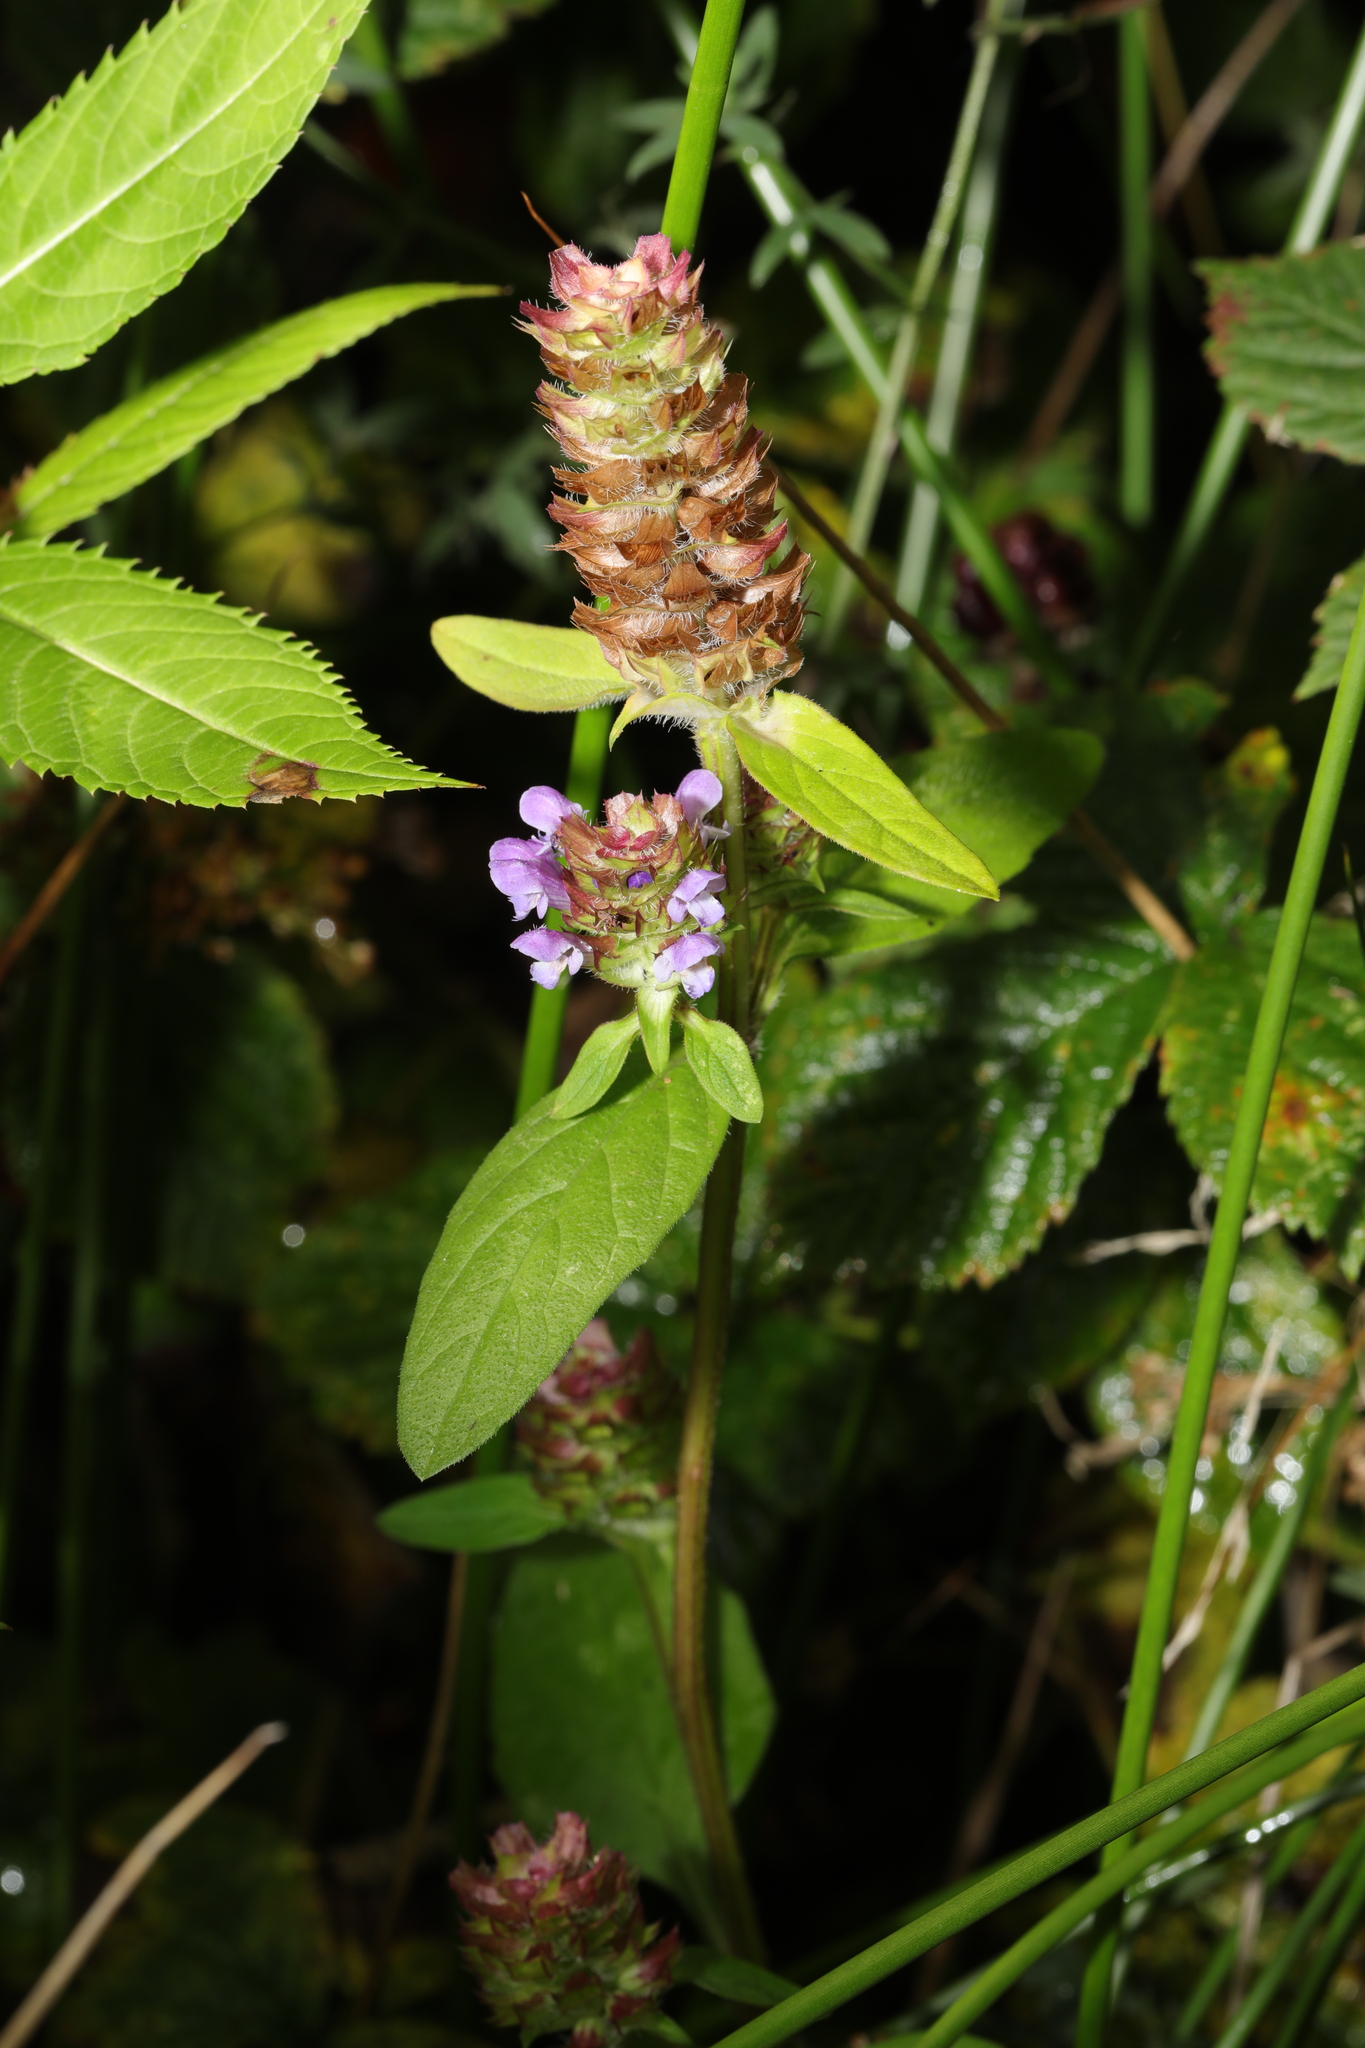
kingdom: Plantae
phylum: Tracheophyta
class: Magnoliopsida
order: Lamiales
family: Lamiaceae
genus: Prunella
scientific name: Prunella vulgaris
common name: Heal-all
